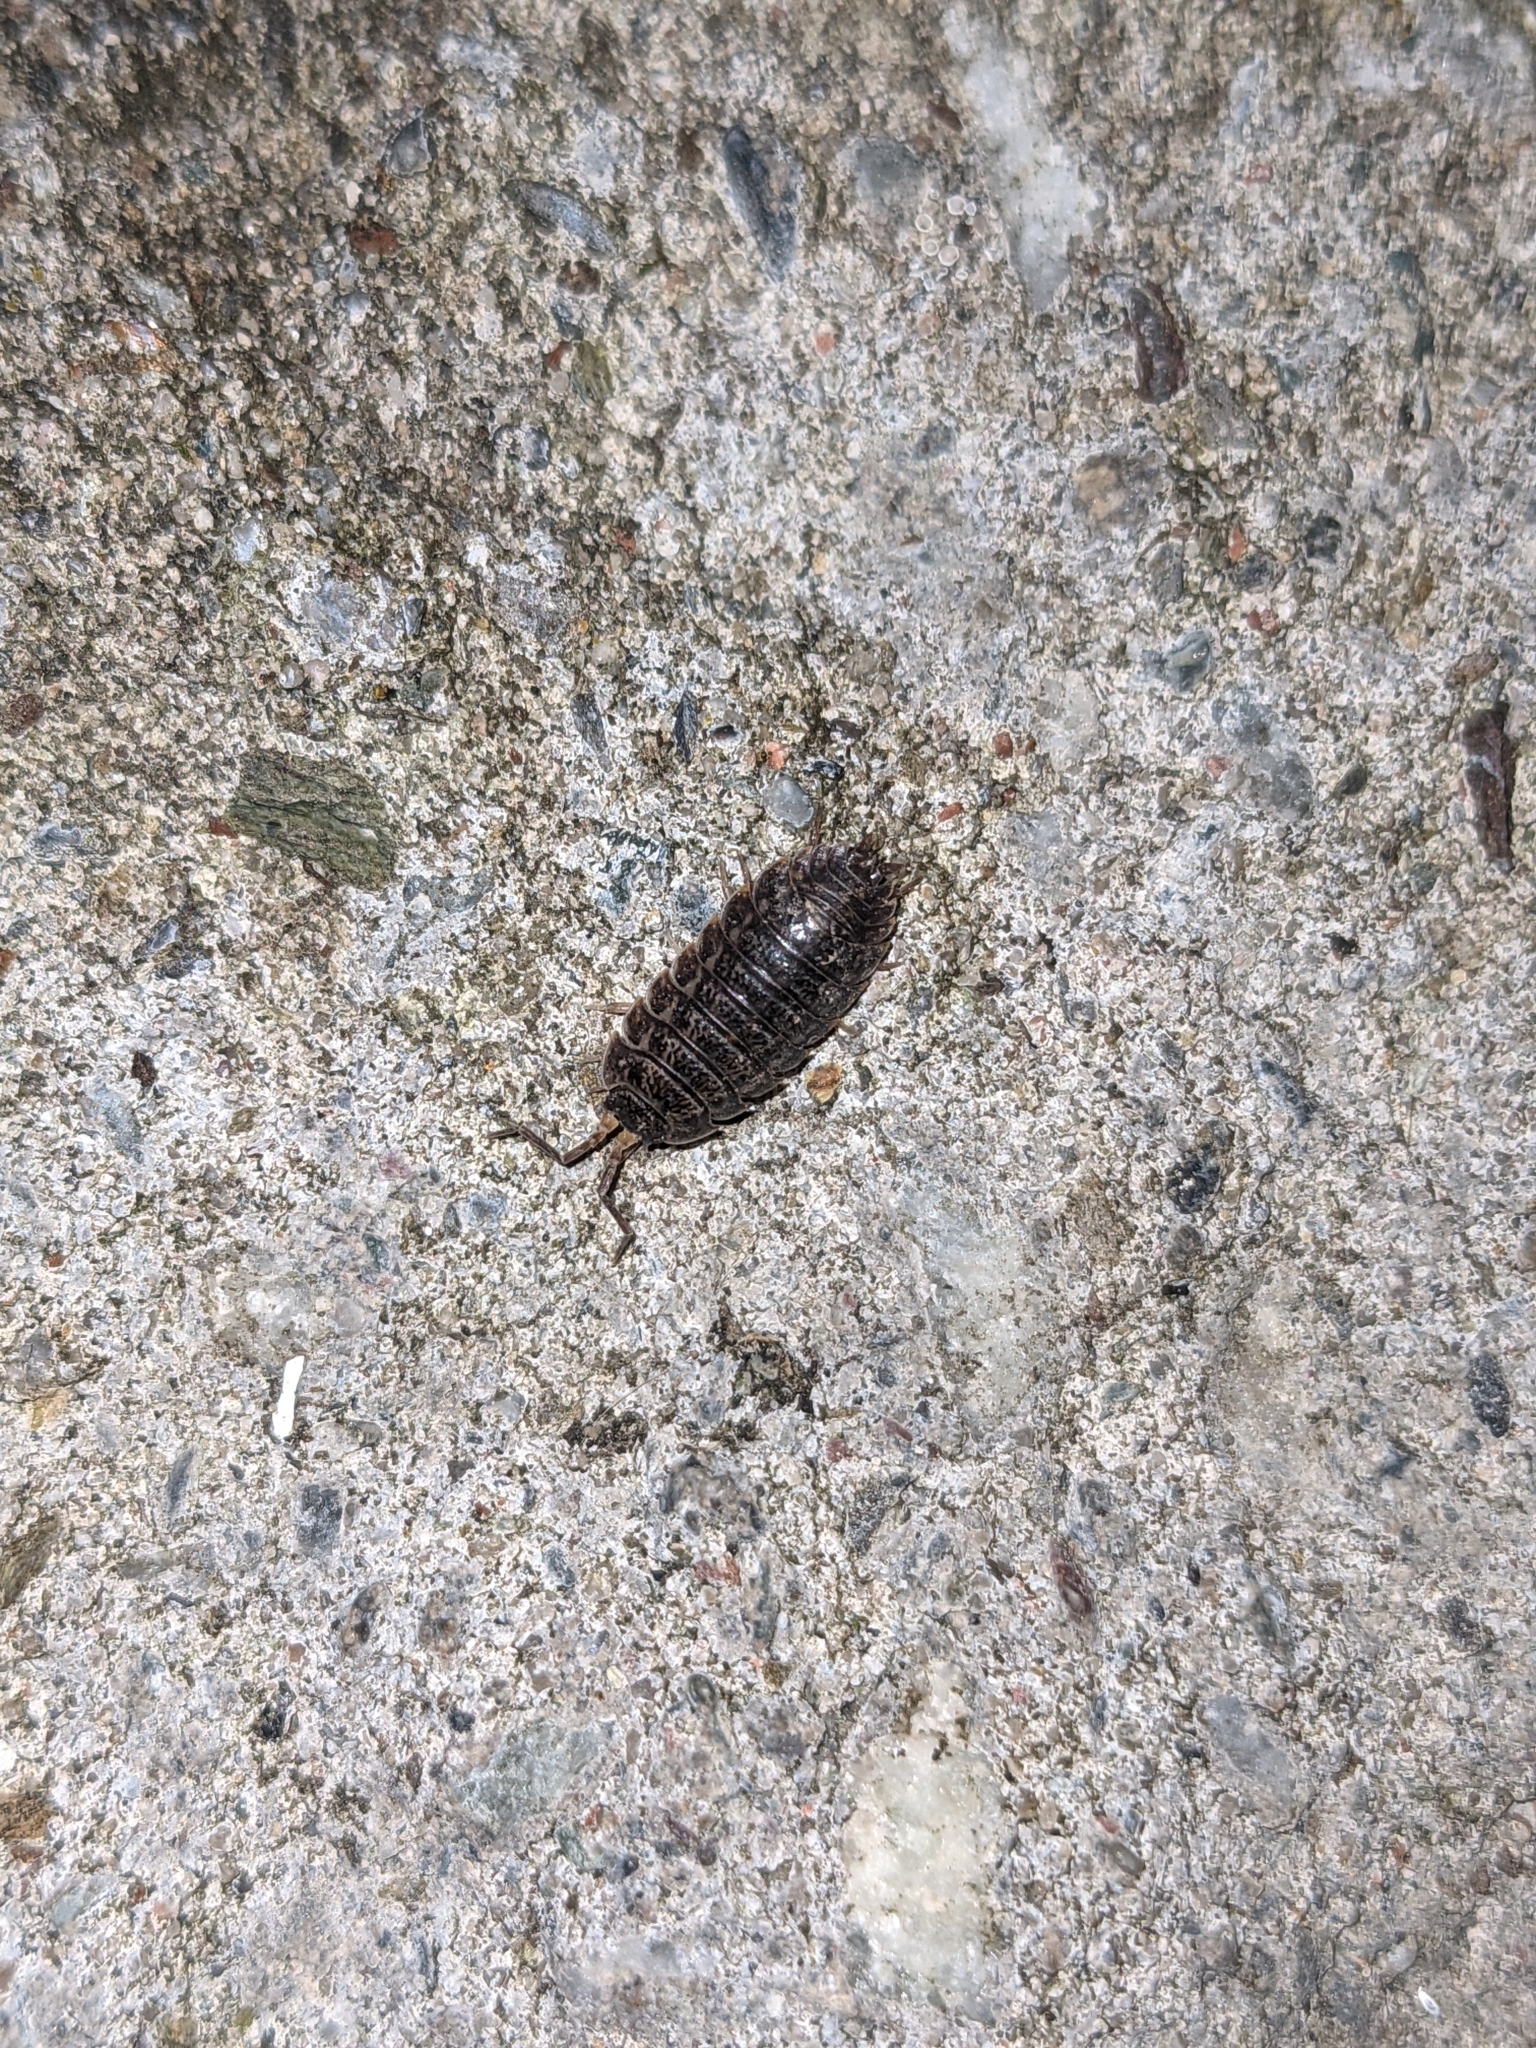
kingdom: Animalia
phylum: Arthropoda
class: Malacostraca
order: Isopoda
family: Trachelipodidae
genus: Trachelipus
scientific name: Trachelipus rathkii
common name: Isopod
